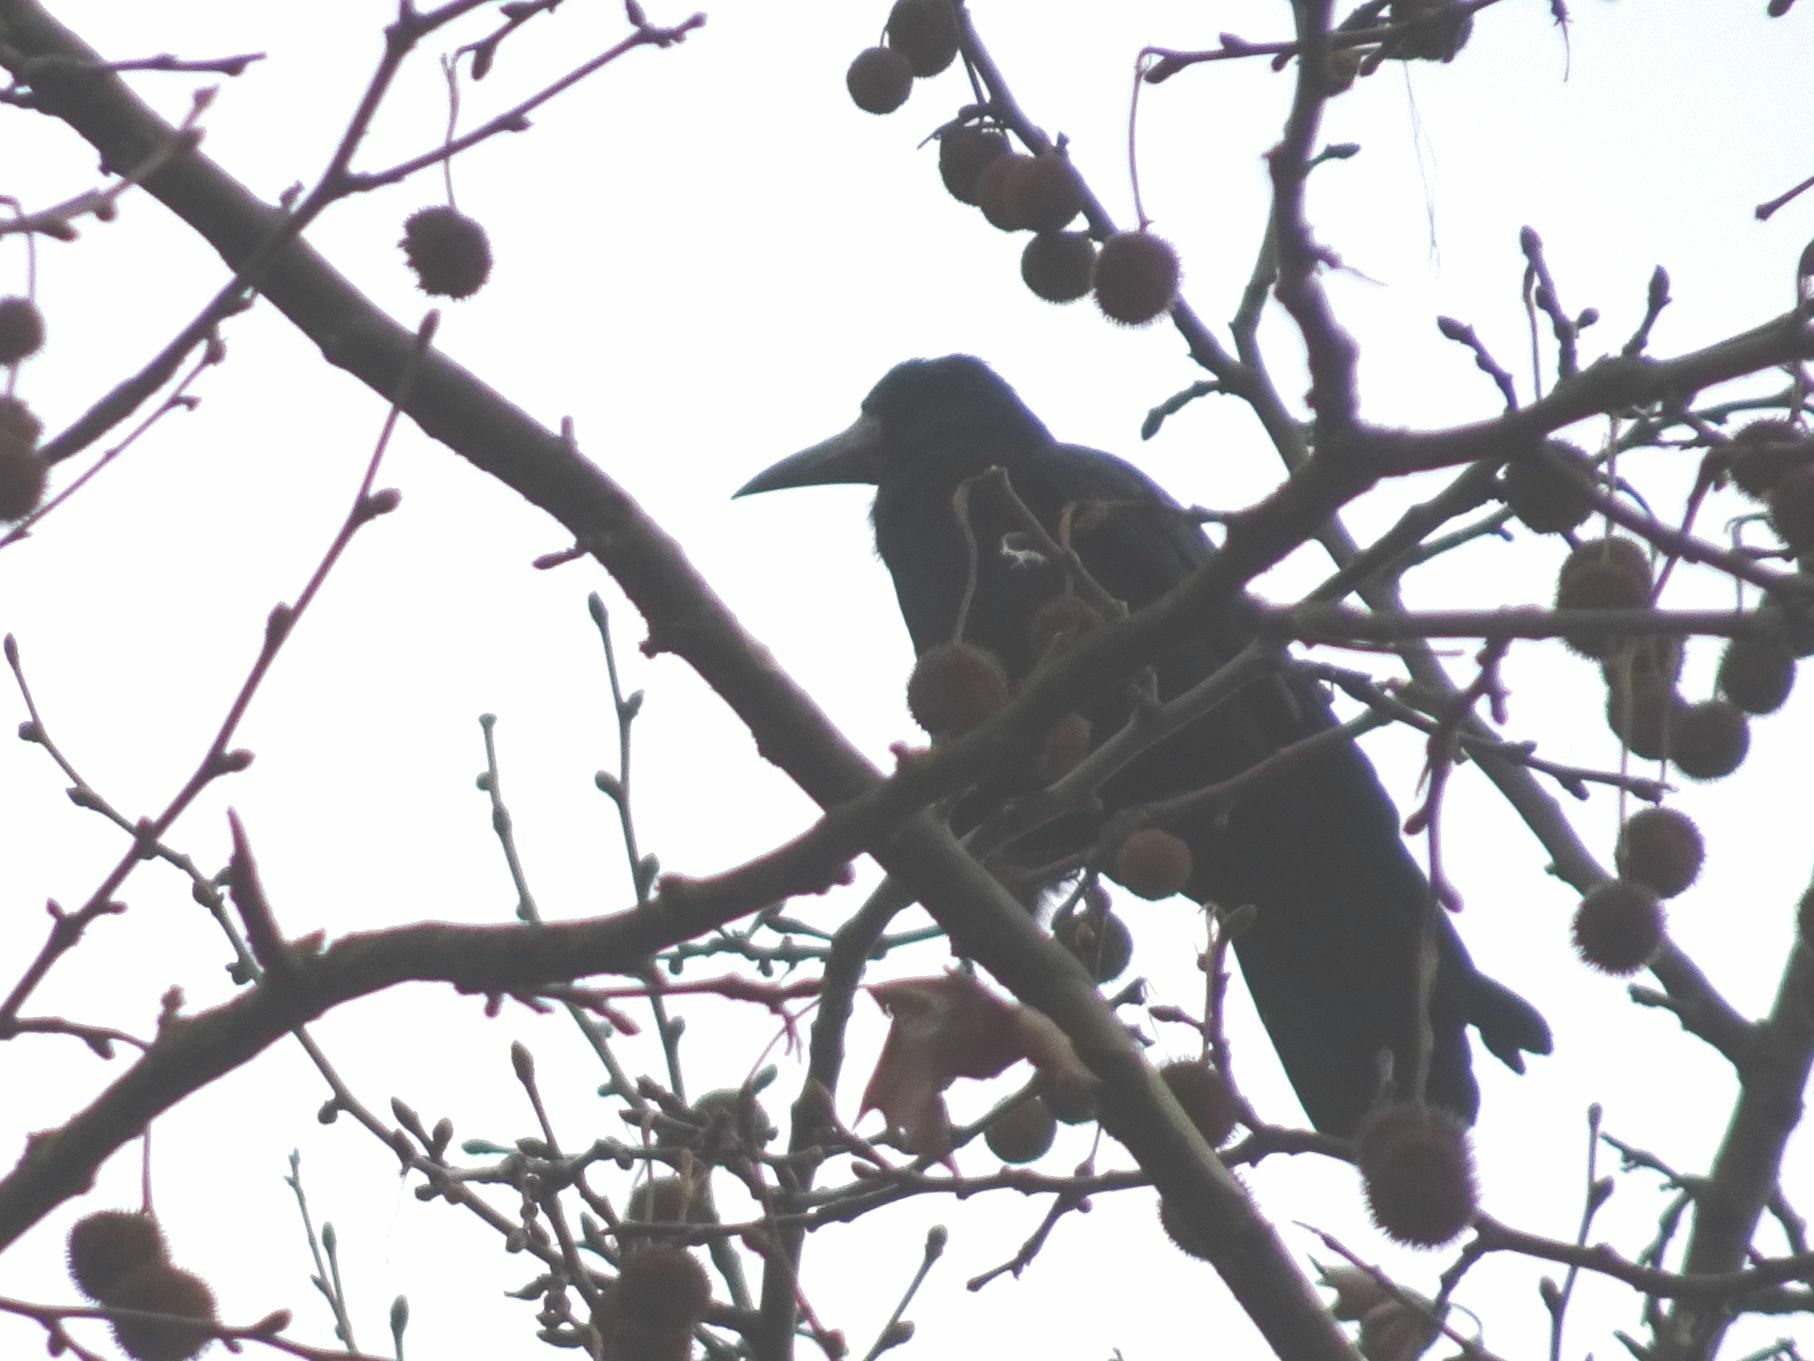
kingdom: Animalia
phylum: Chordata
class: Aves
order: Passeriformes
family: Corvidae
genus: Corvus
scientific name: Corvus frugilegus
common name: Rook
